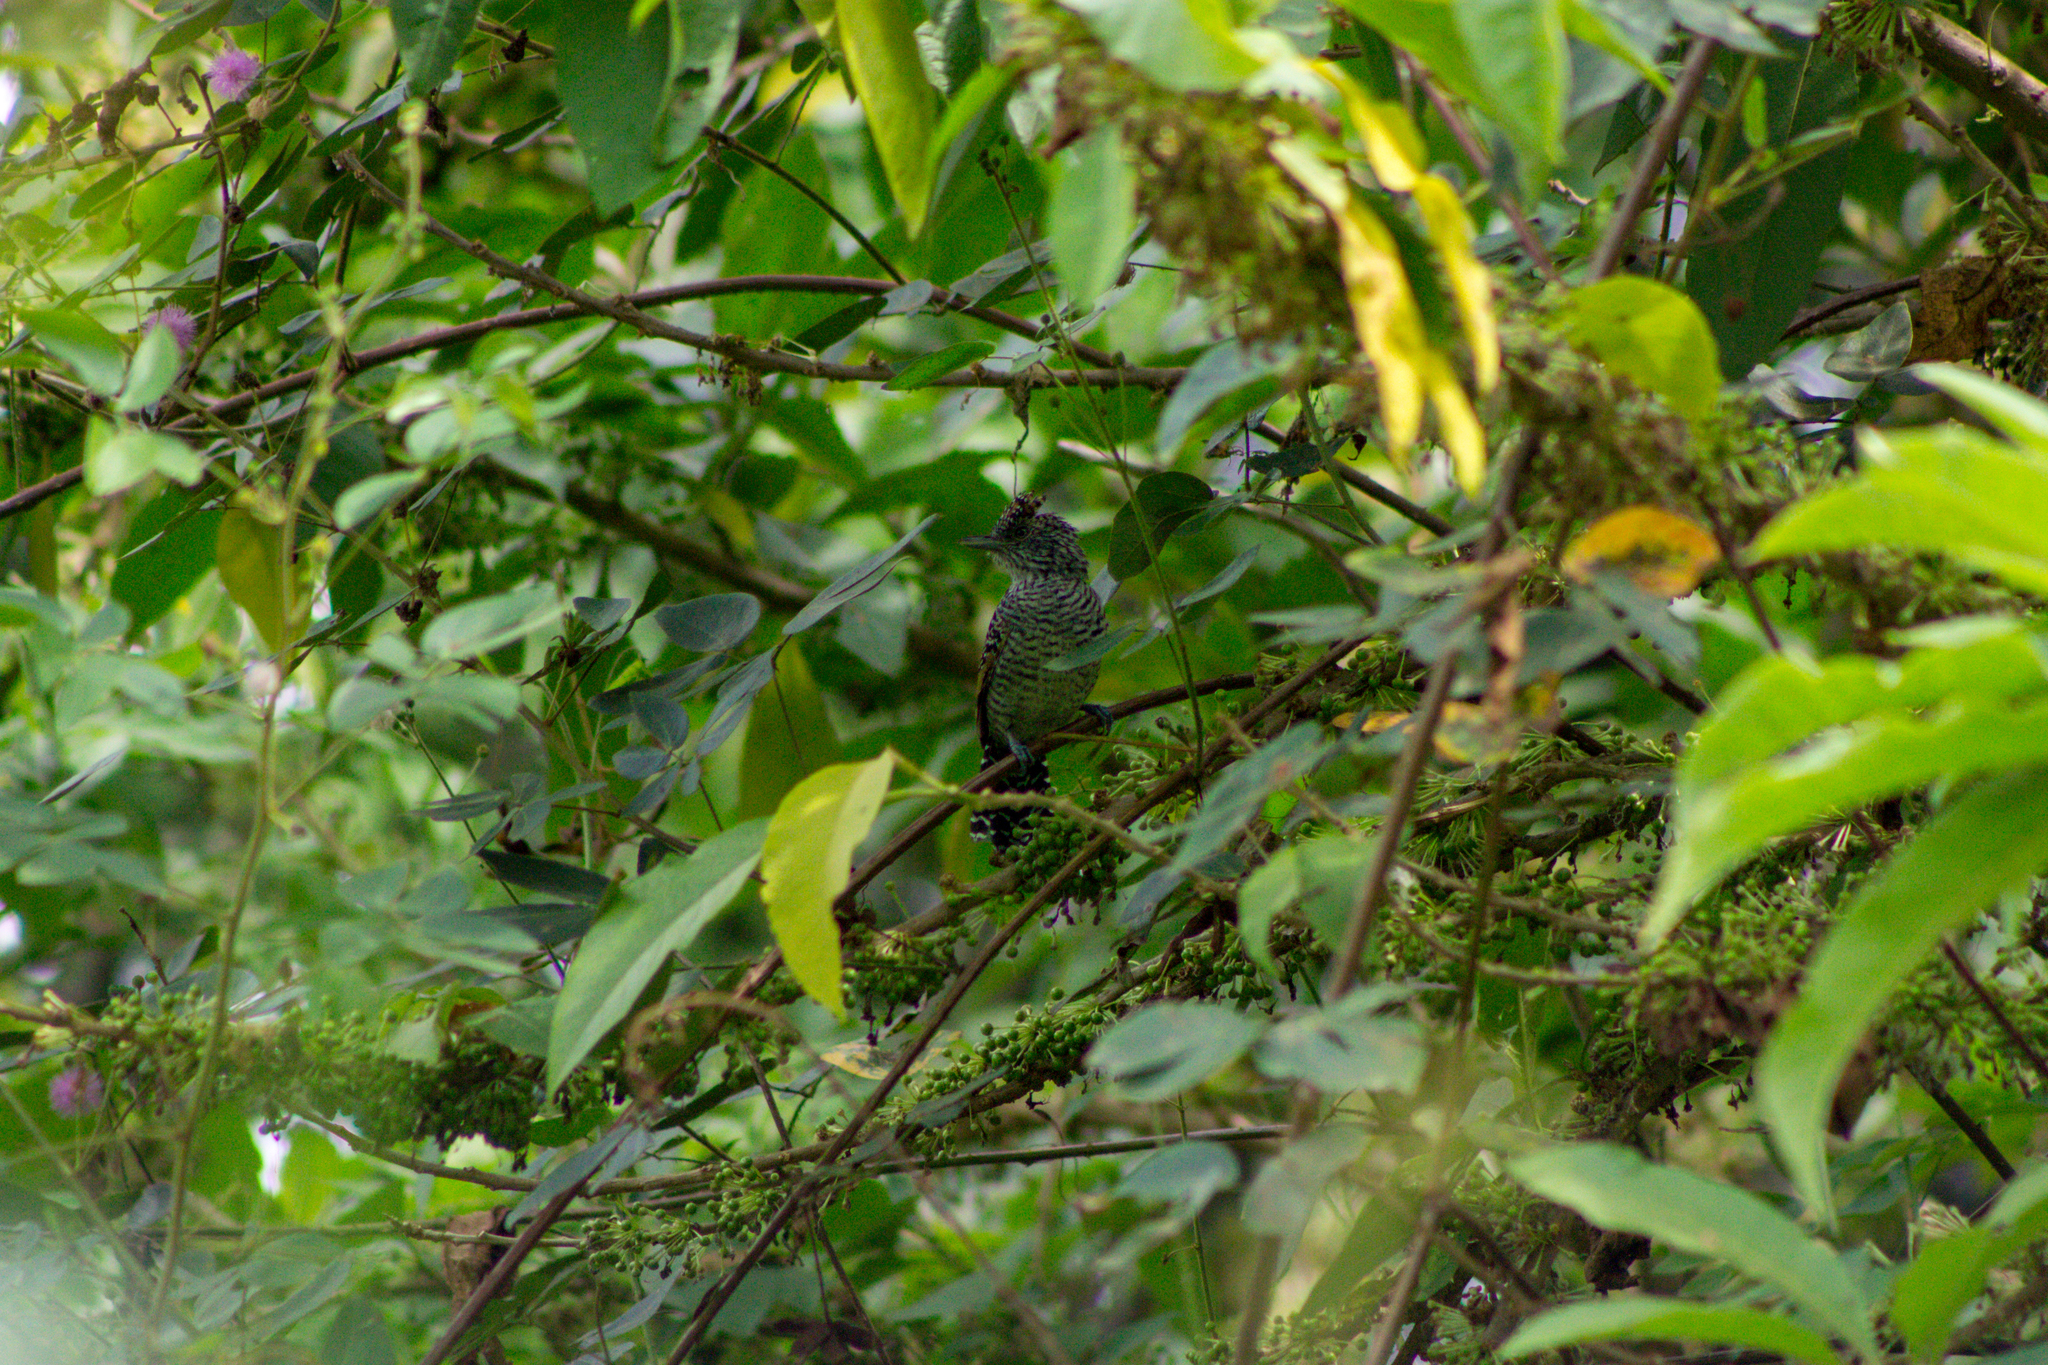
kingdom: Animalia
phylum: Chordata
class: Aves
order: Passeriformes
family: Thamnophilidae
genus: Thamnophilus
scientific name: Thamnophilus multistriatus
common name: Bar-crested antshrike
